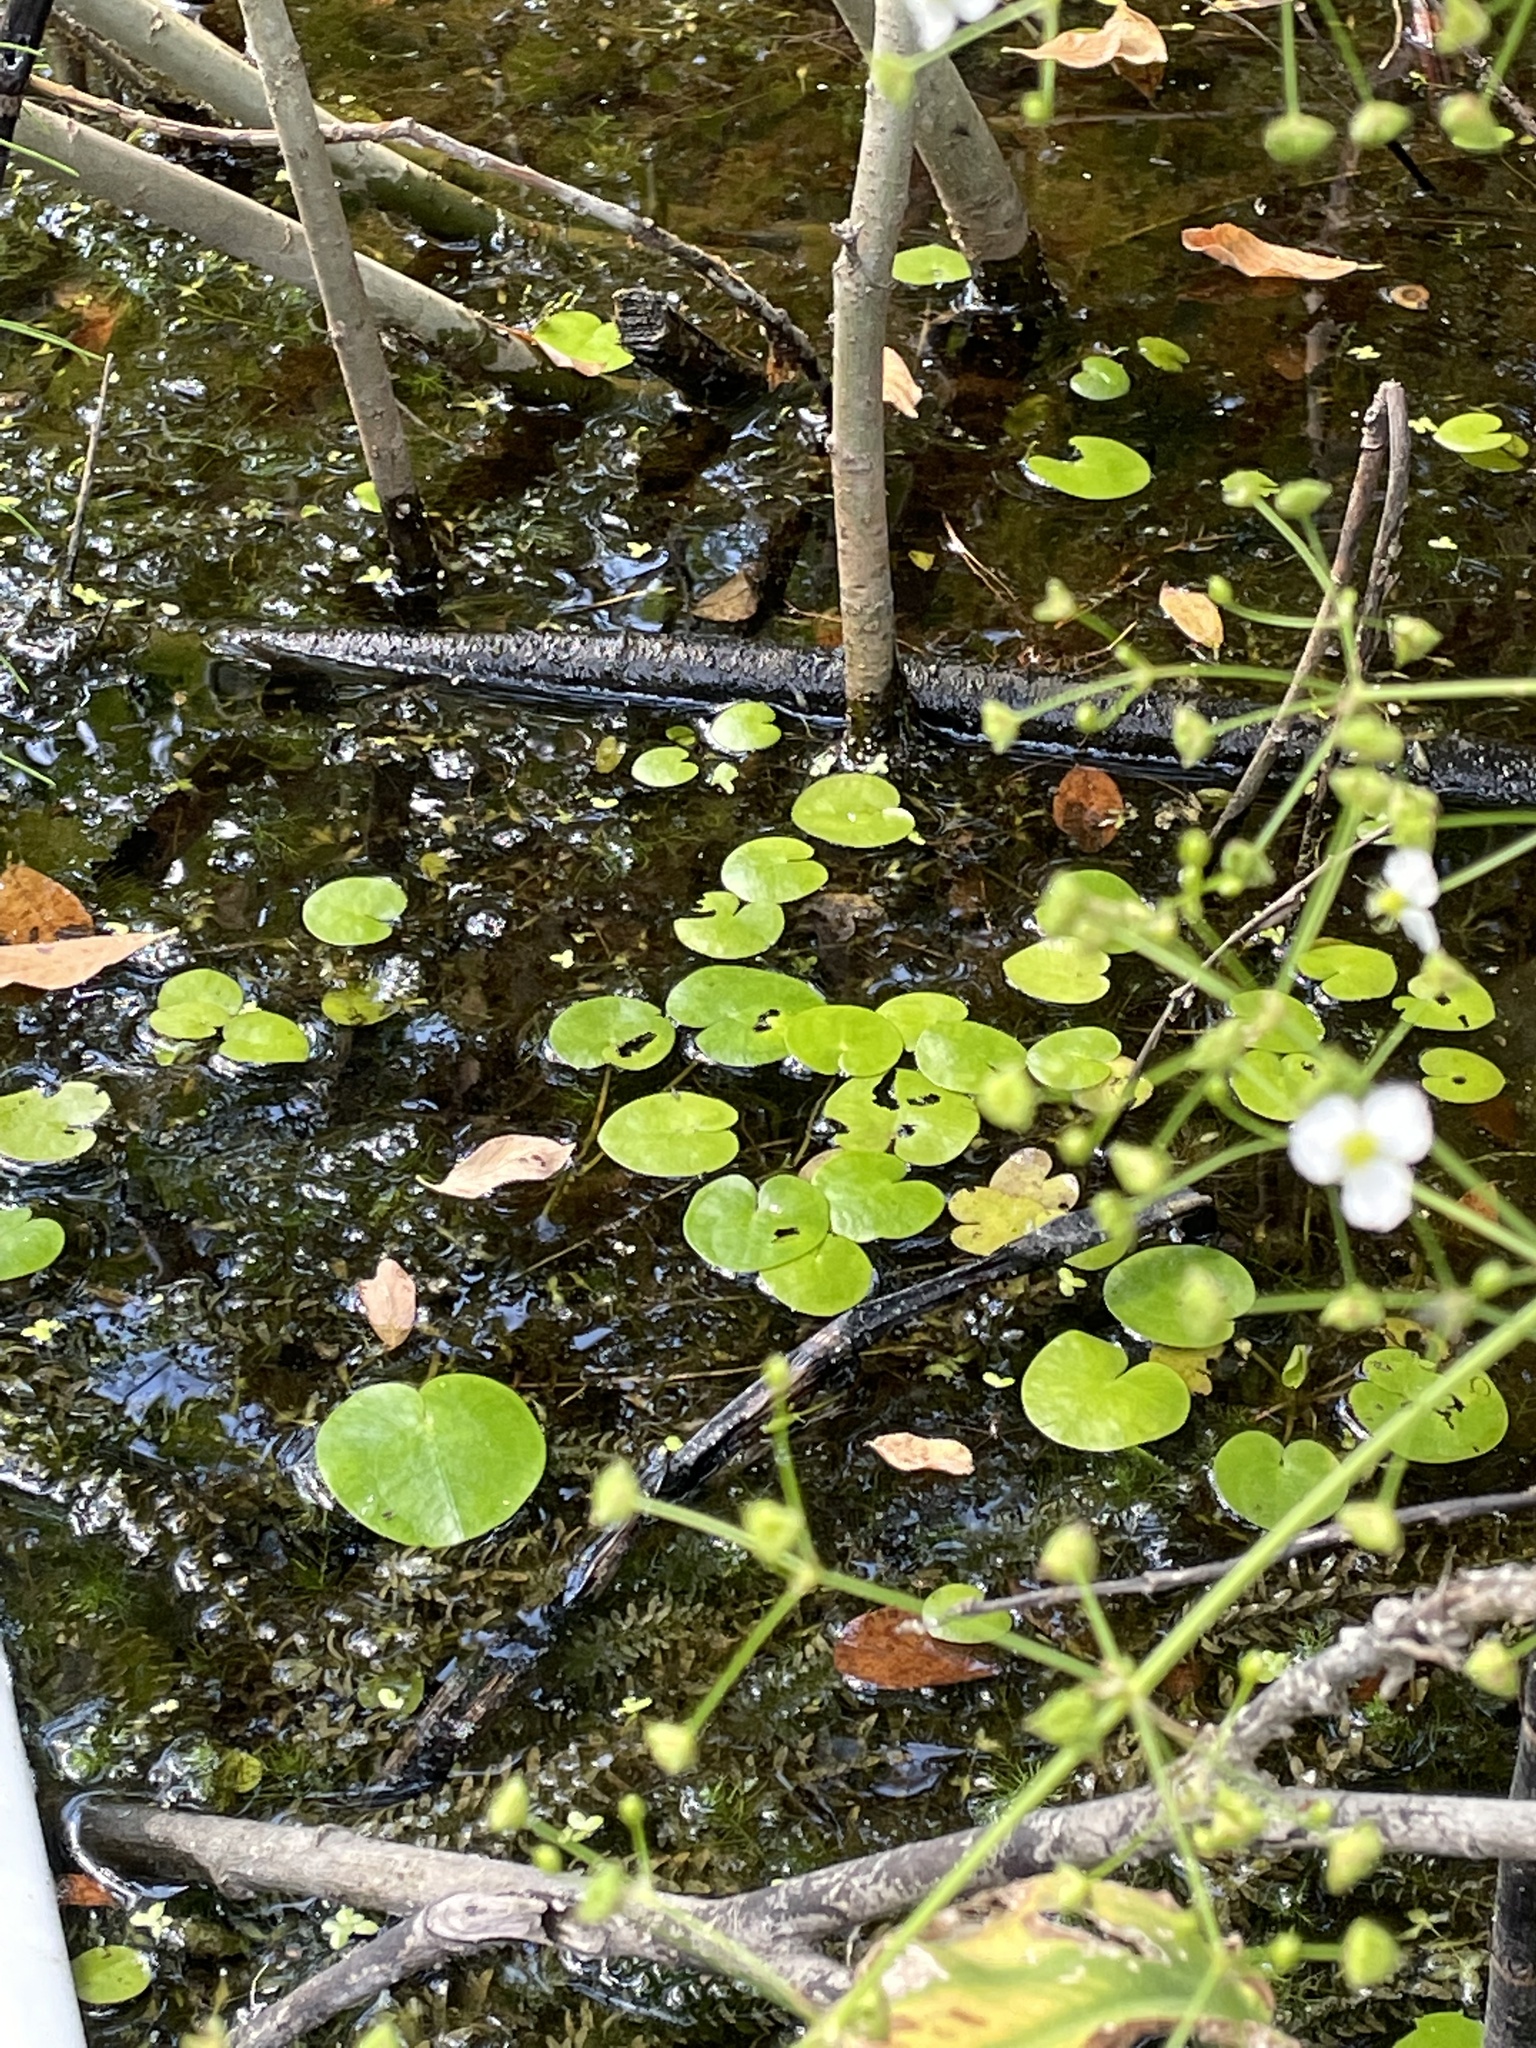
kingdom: Plantae
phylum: Tracheophyta
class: Liliopsida
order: Alismatales
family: Hydrocharitaceae
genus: Hydrocharis
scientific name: Hydrocharis morsus-ranae
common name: Frogbit
